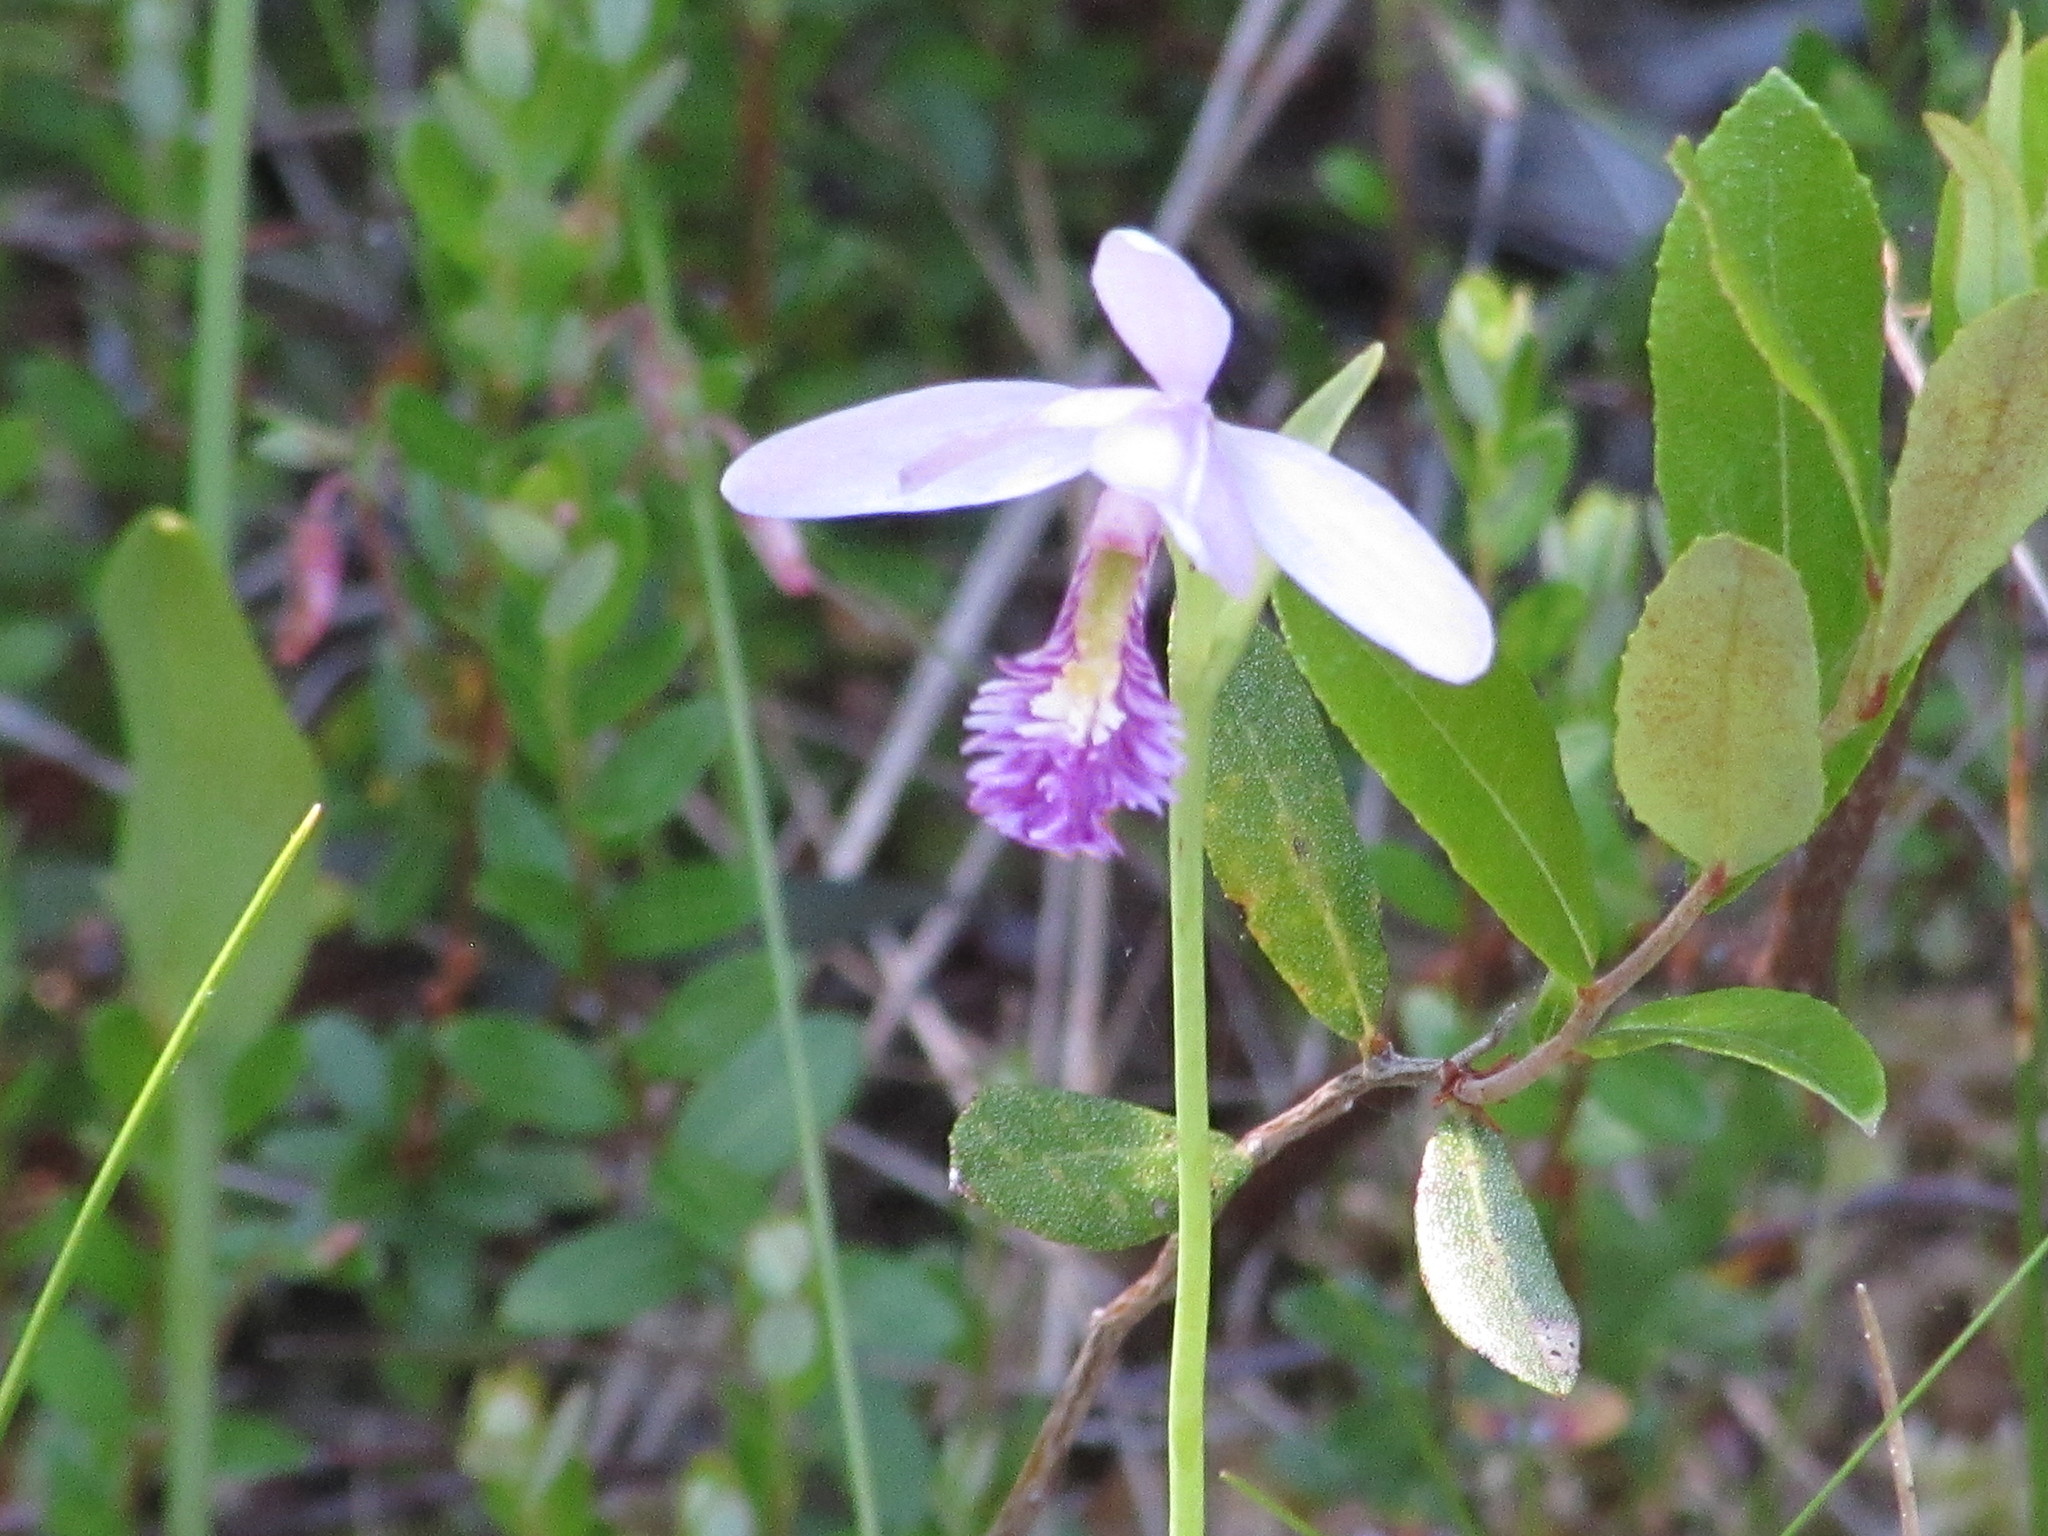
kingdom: Plantae
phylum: Tracheophyta
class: Liliopsida
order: Asparagales
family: Orchidaceae
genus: Pogonia
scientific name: Pogonia ophioglossoides
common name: Rose pogonia
